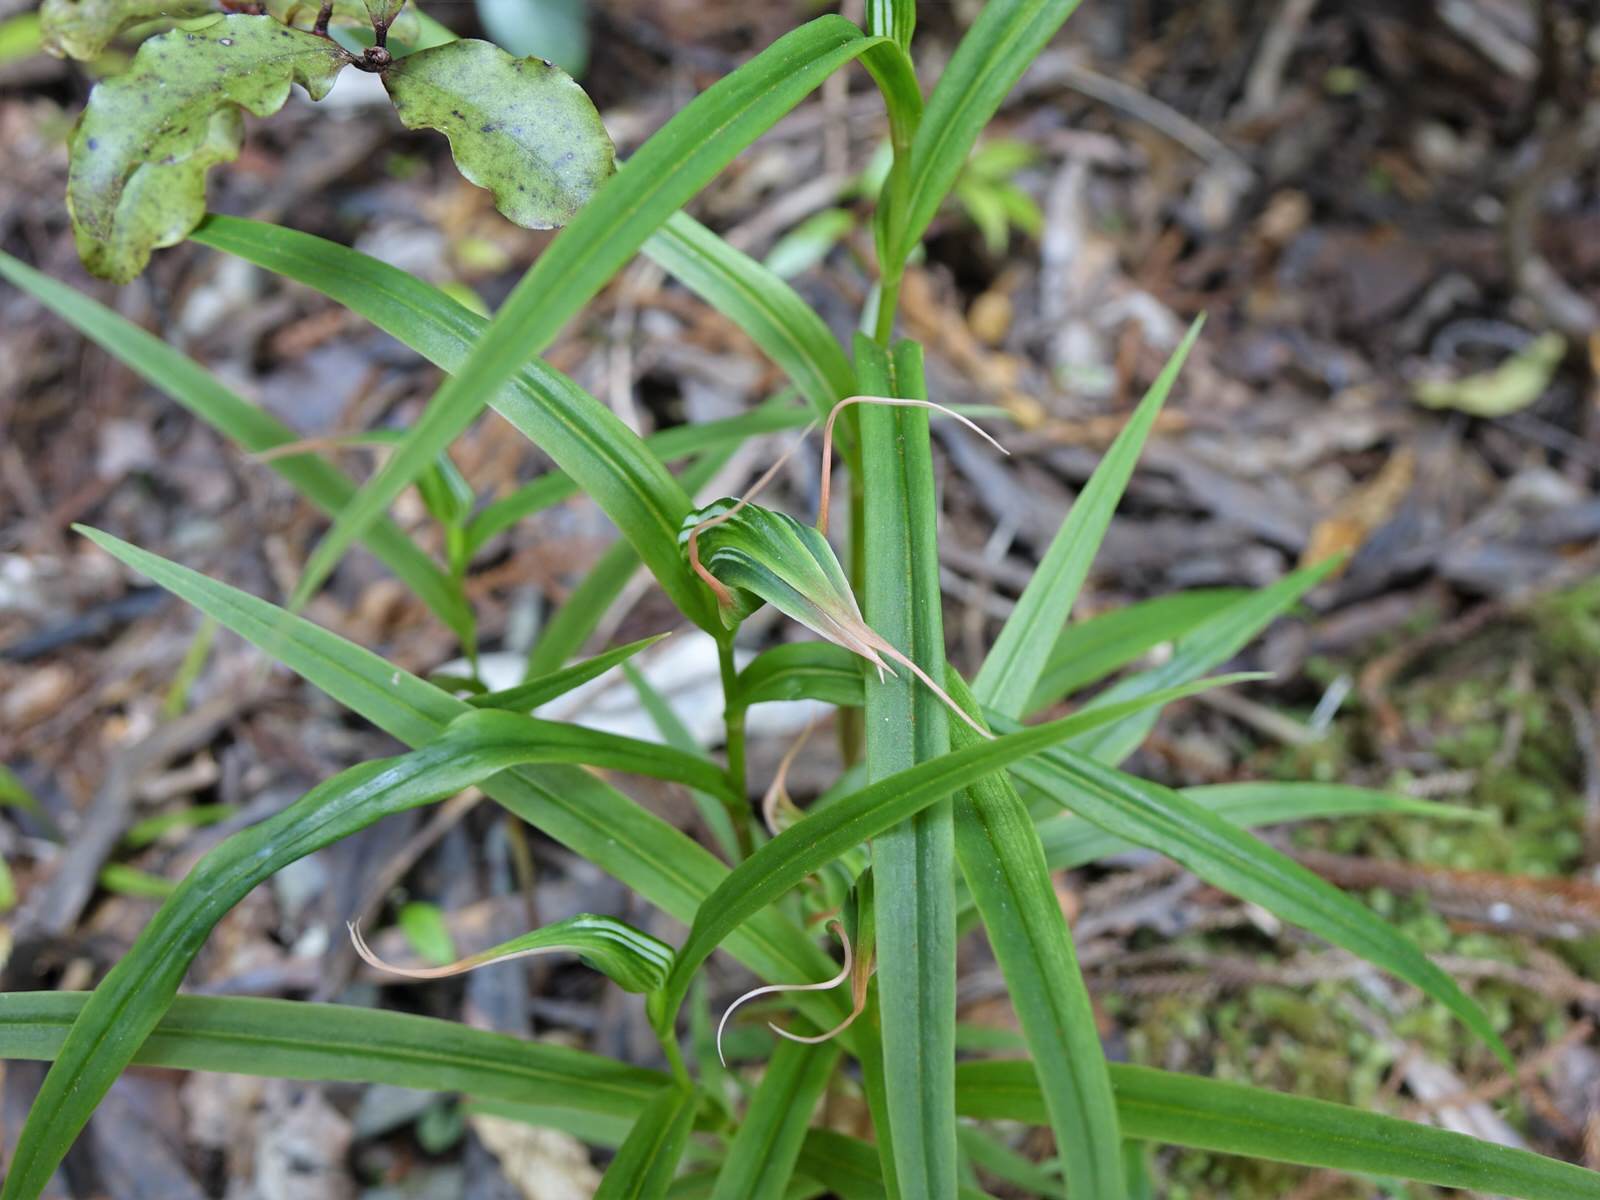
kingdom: Plantae
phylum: Tracheophyta
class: Liliopsida
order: Asparagales
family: Orchidaceae
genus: Pterostylis
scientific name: Pterostylis banksii
